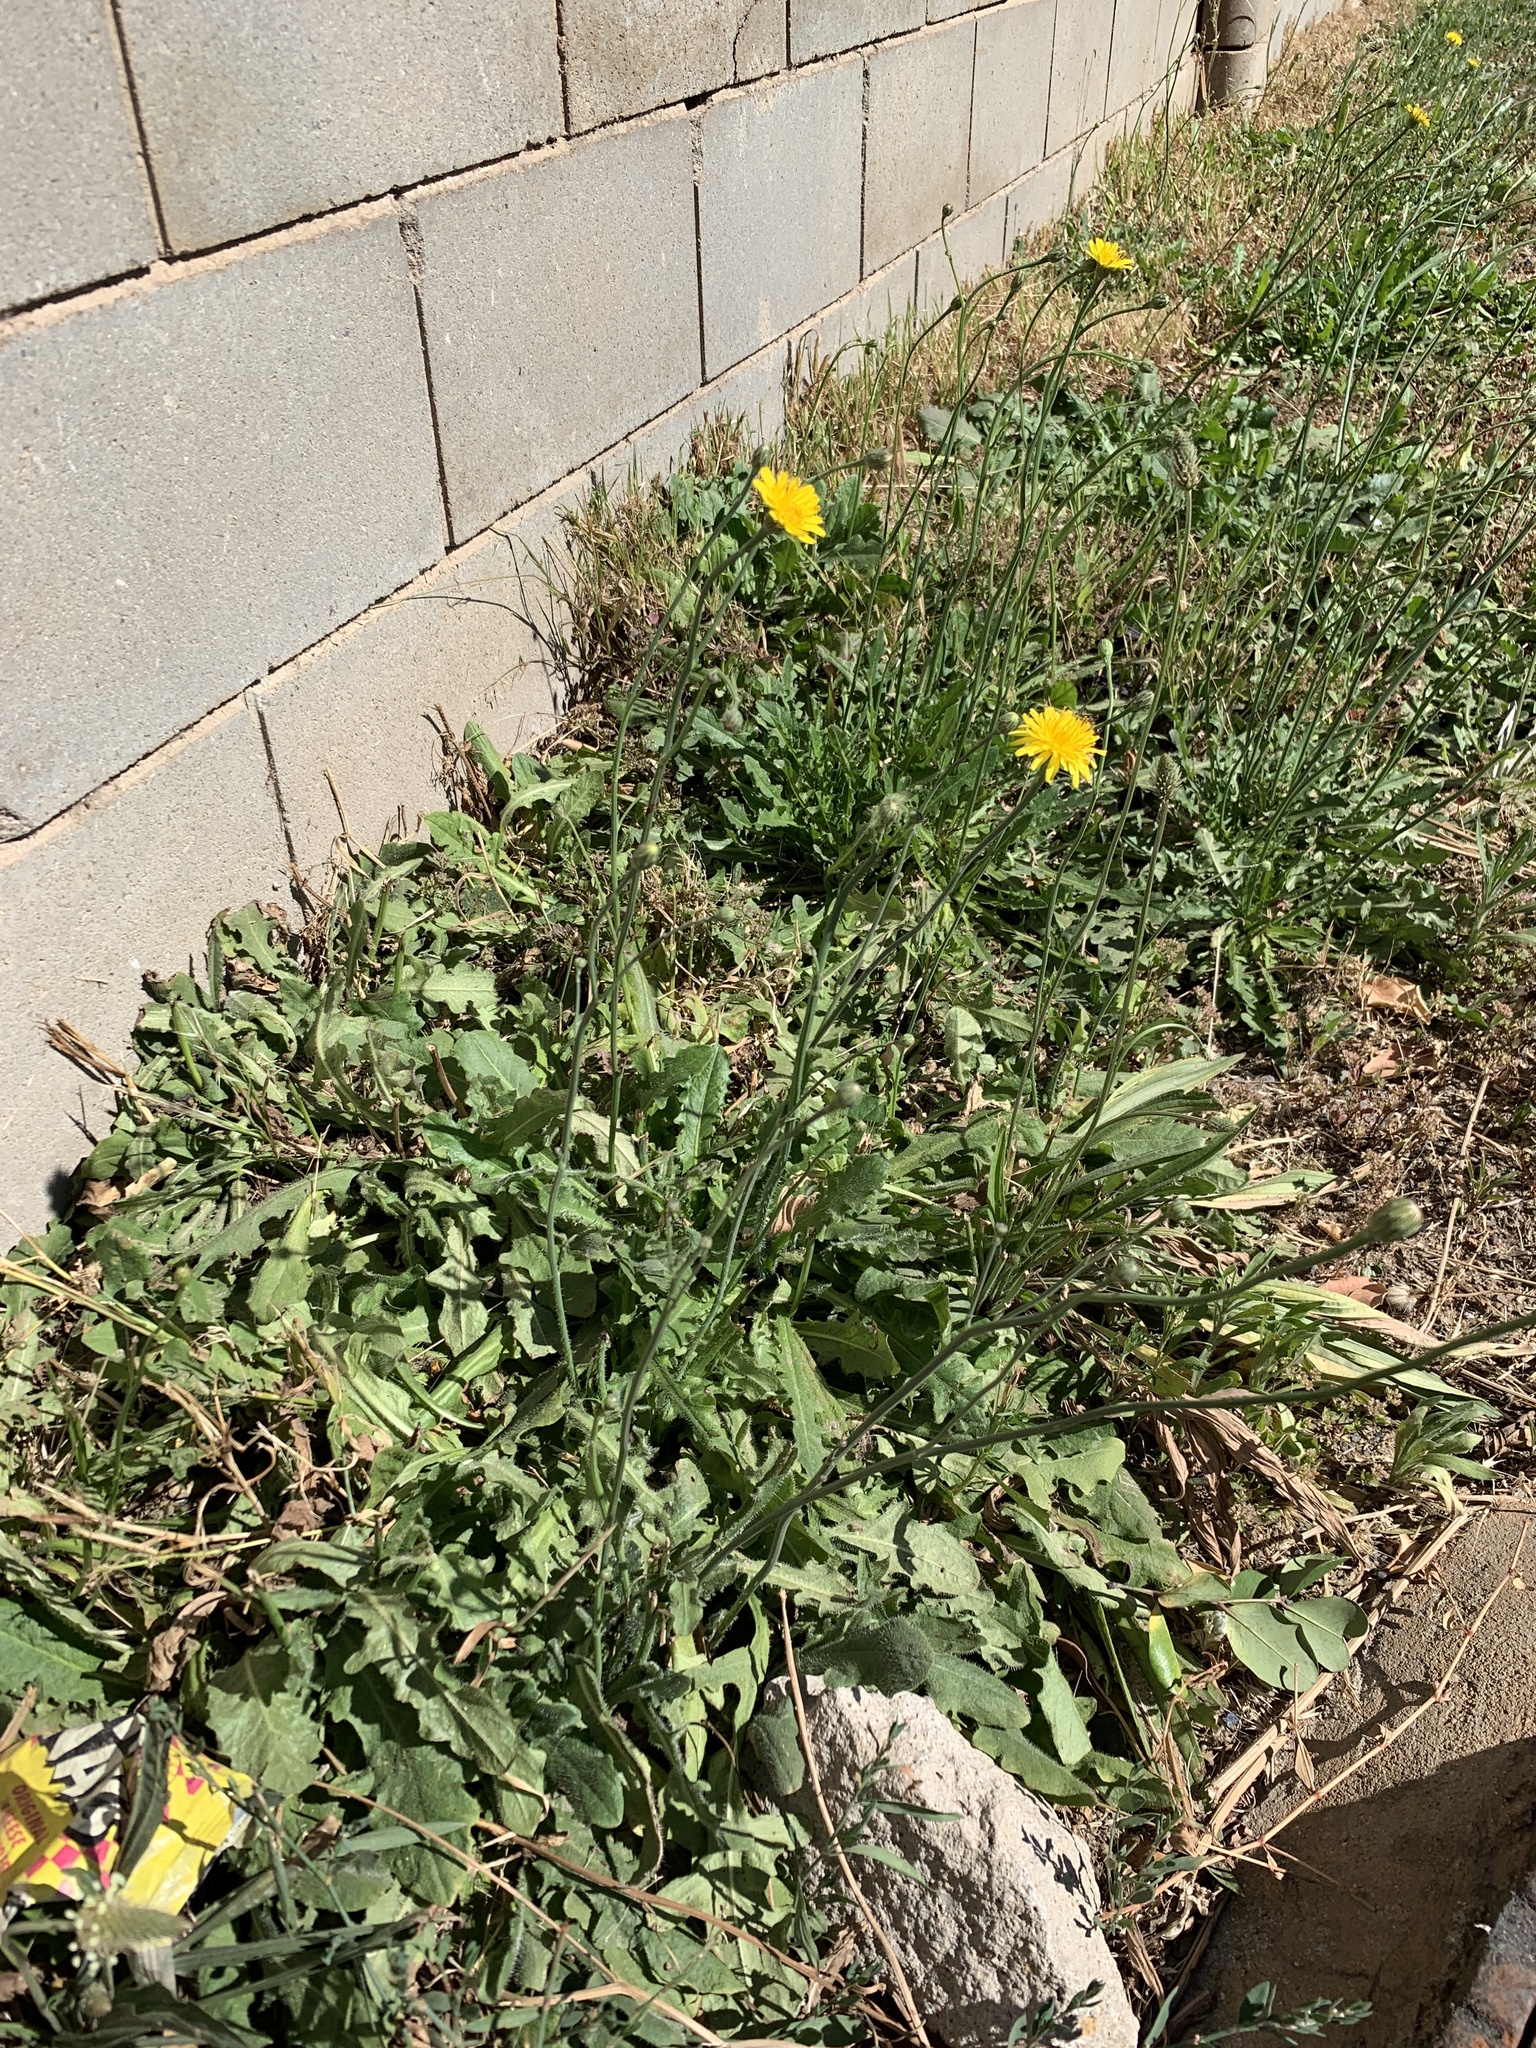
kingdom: Plantae
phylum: Tracheophyta
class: Magnoliopsida
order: Asterales
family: Asteraceae
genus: Hypochaeris
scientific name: Hypochaeris radicata
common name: Flatweed
